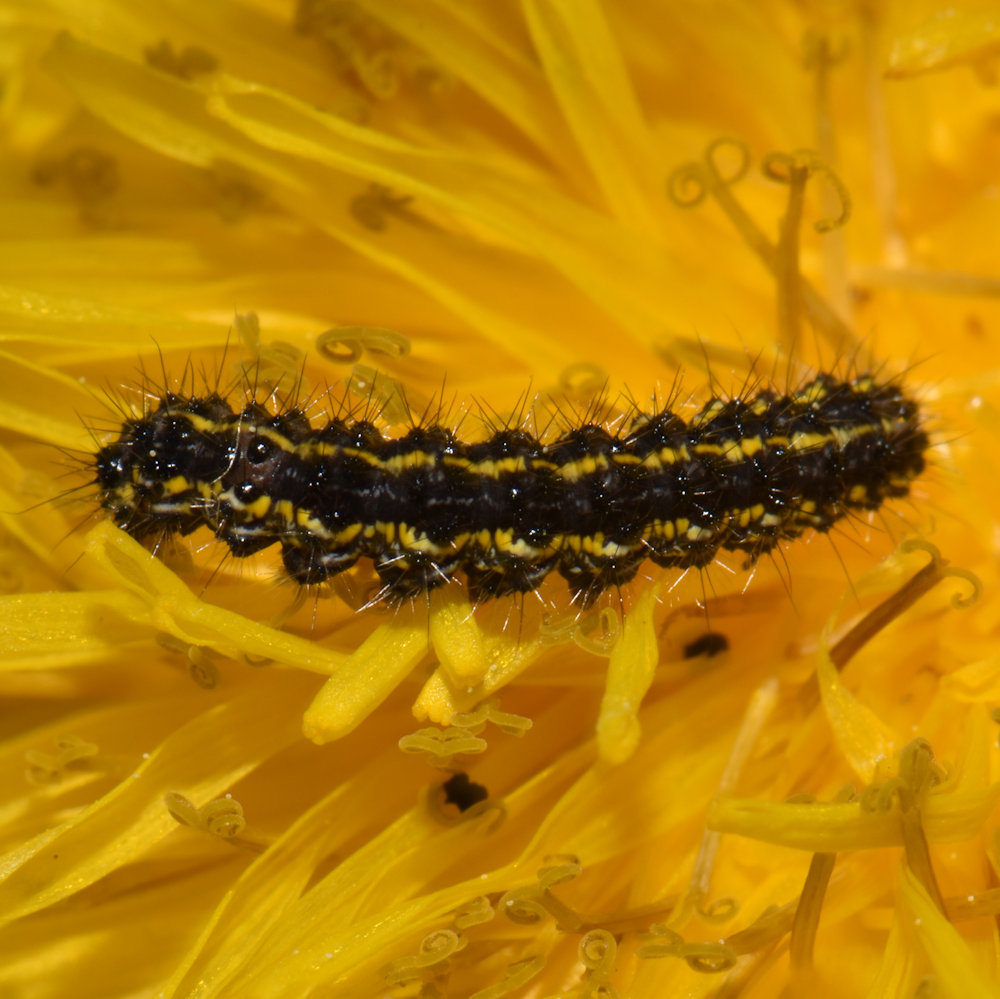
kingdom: Animalia
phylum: Arthropoda
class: Insecta
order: Lepidoptera
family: Erebidae
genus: Haploa
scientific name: Haploa confusa
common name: Confused haploa moth
